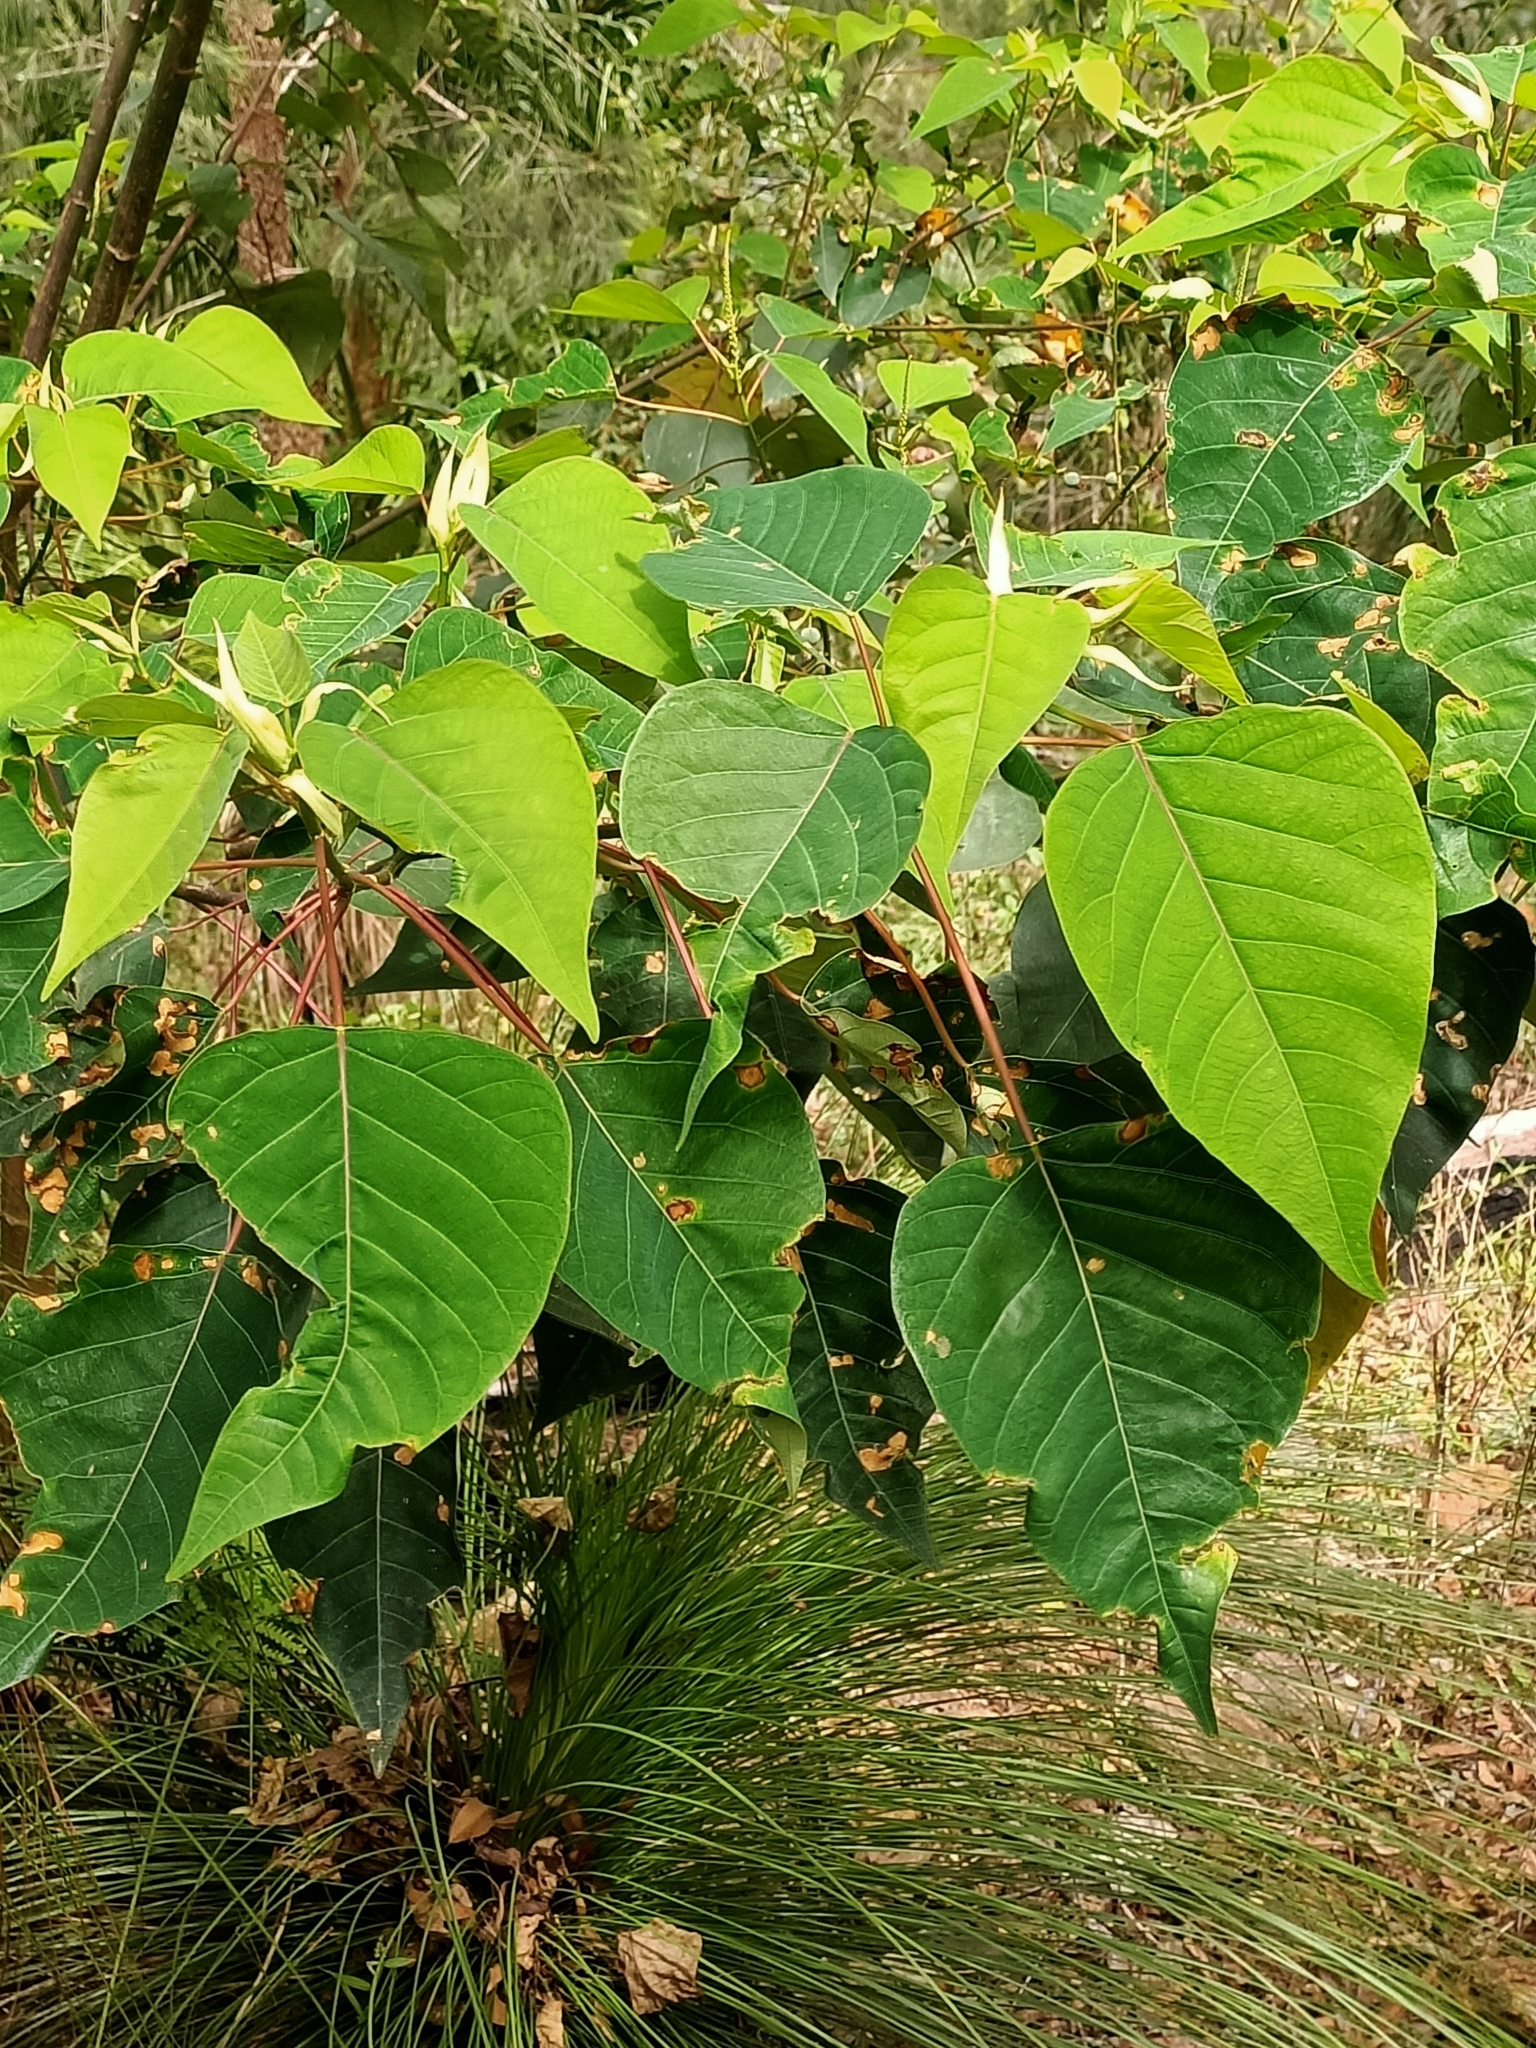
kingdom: Plantae
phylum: Tracheophyta
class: Magnoliopsida
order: Malpighiales
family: Euphorbiaceae
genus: Homalanthus
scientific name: Homalanthus populifolius
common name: Queensland poplar
